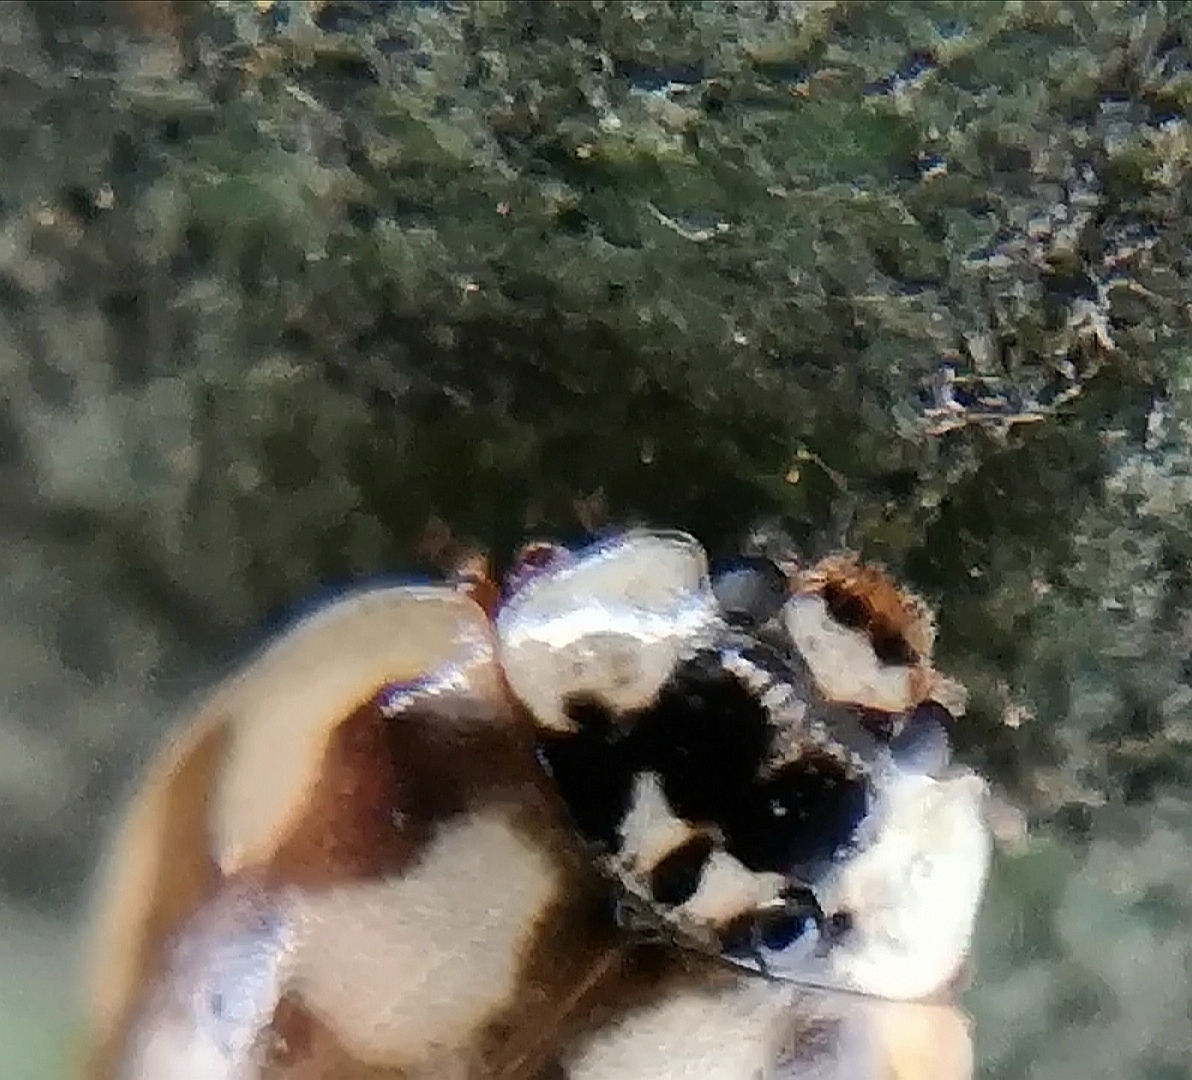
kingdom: Animalia
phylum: Arthropoda
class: Insecta
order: Coleoptera
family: Coccinellidae
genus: Adalia
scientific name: Adalia decempunctata
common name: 10-spot ladybird
